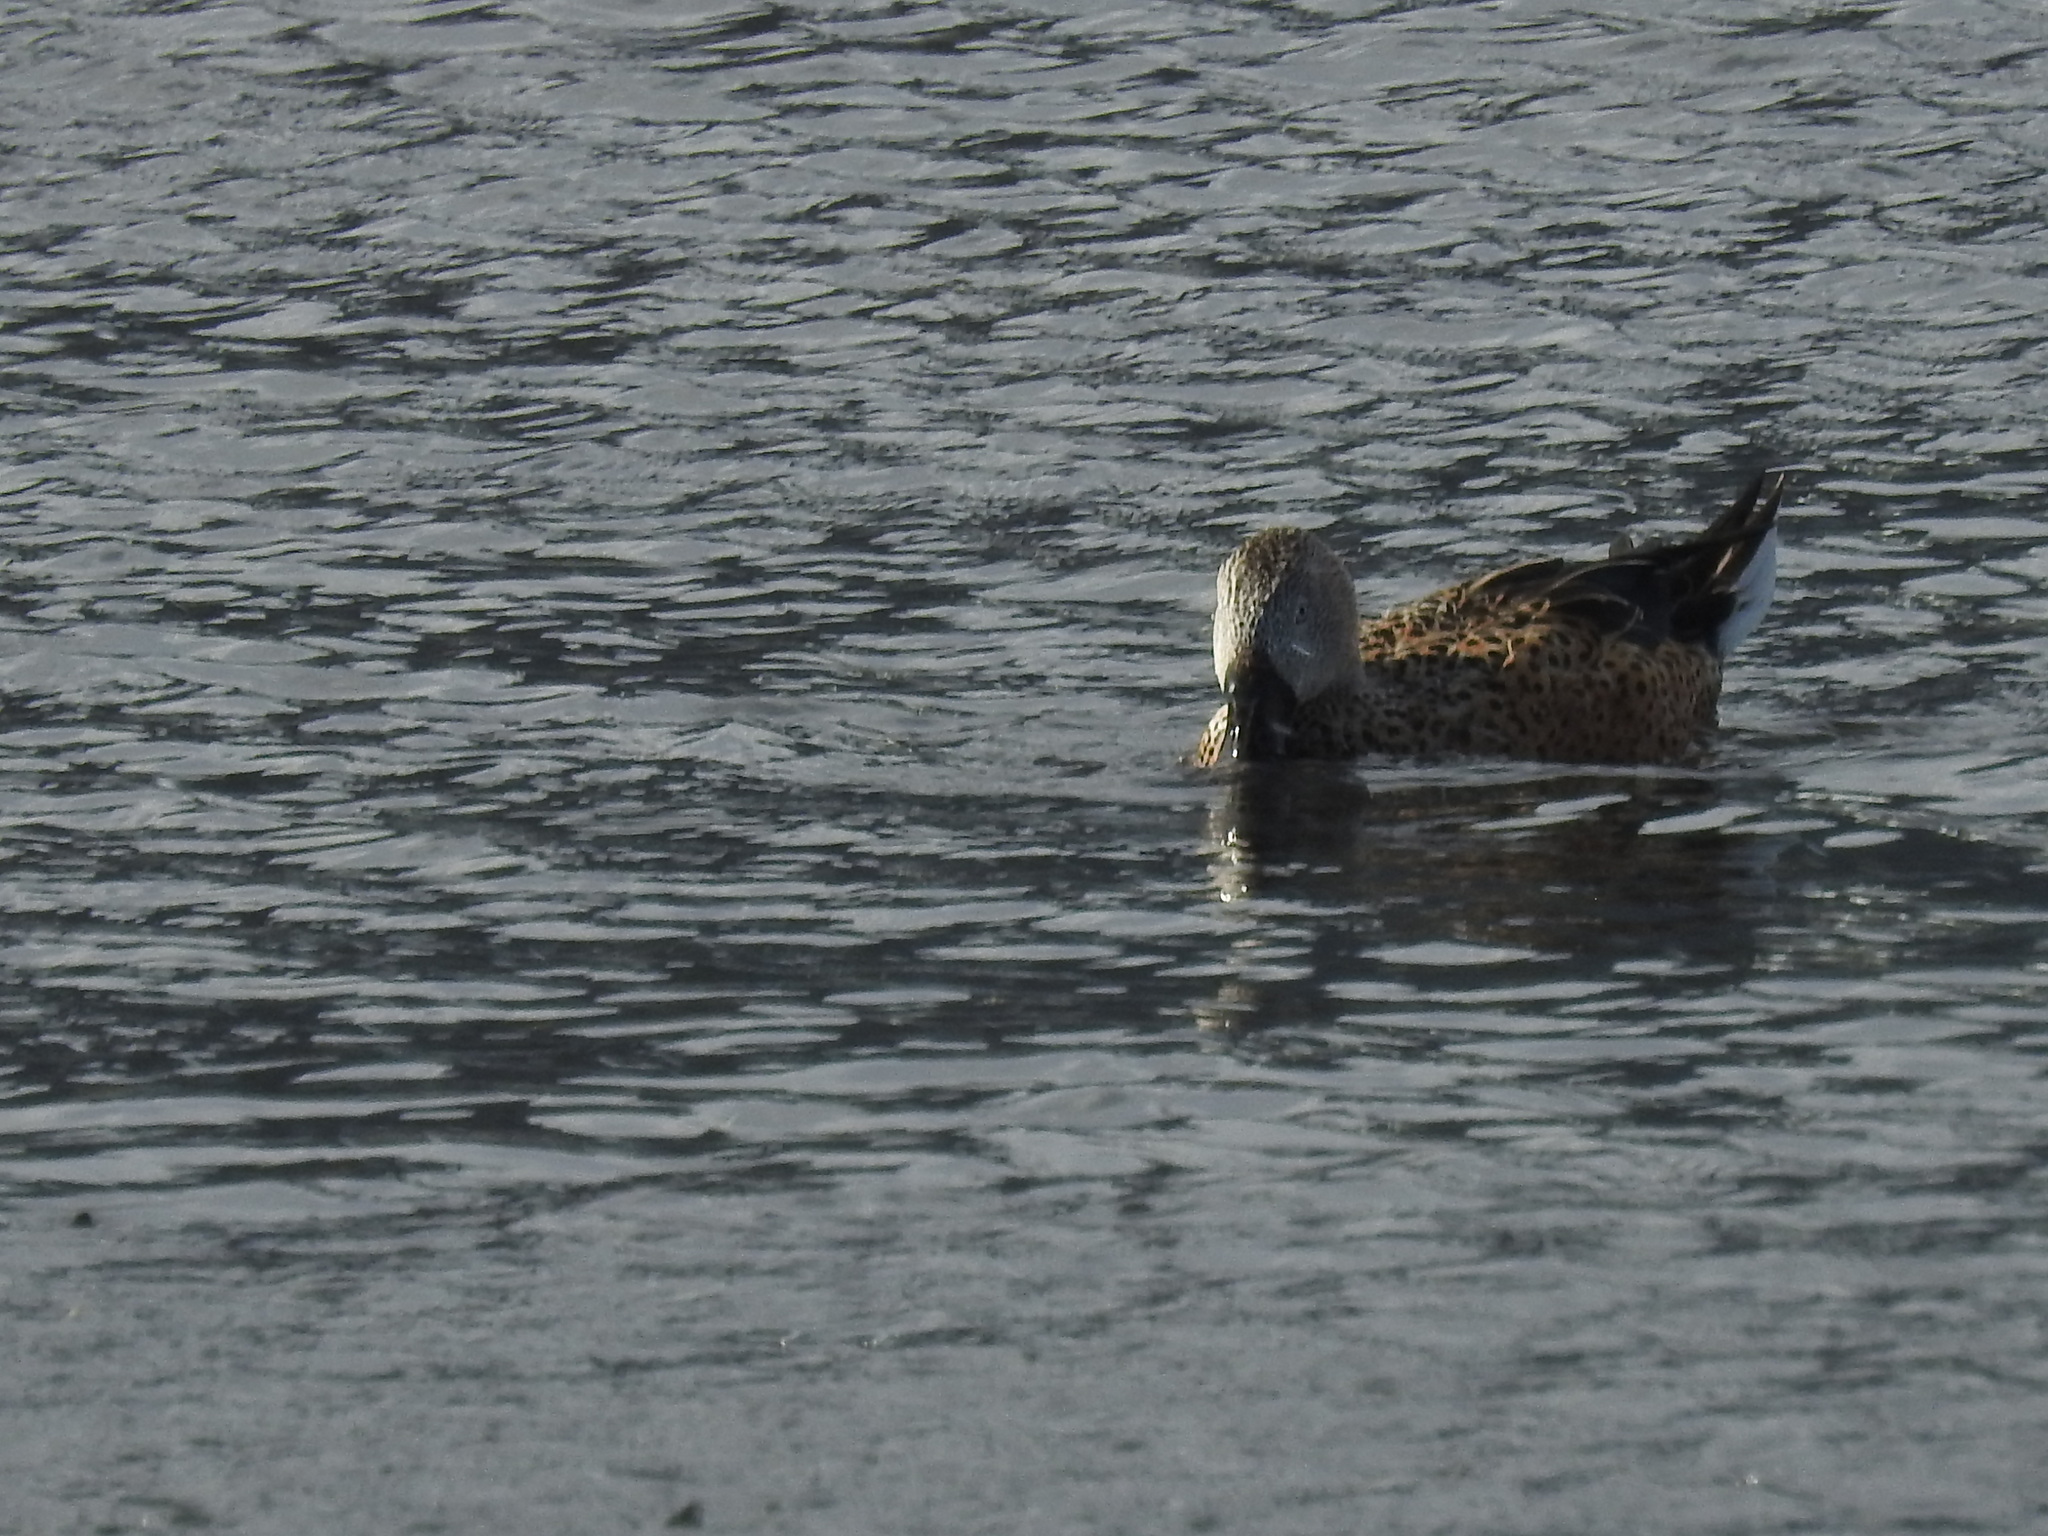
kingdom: Animalia
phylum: Chordata
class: Aves
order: Anseriformes
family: Anatidae
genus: Spatula
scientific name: Spatula platalea
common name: Red shoveler
